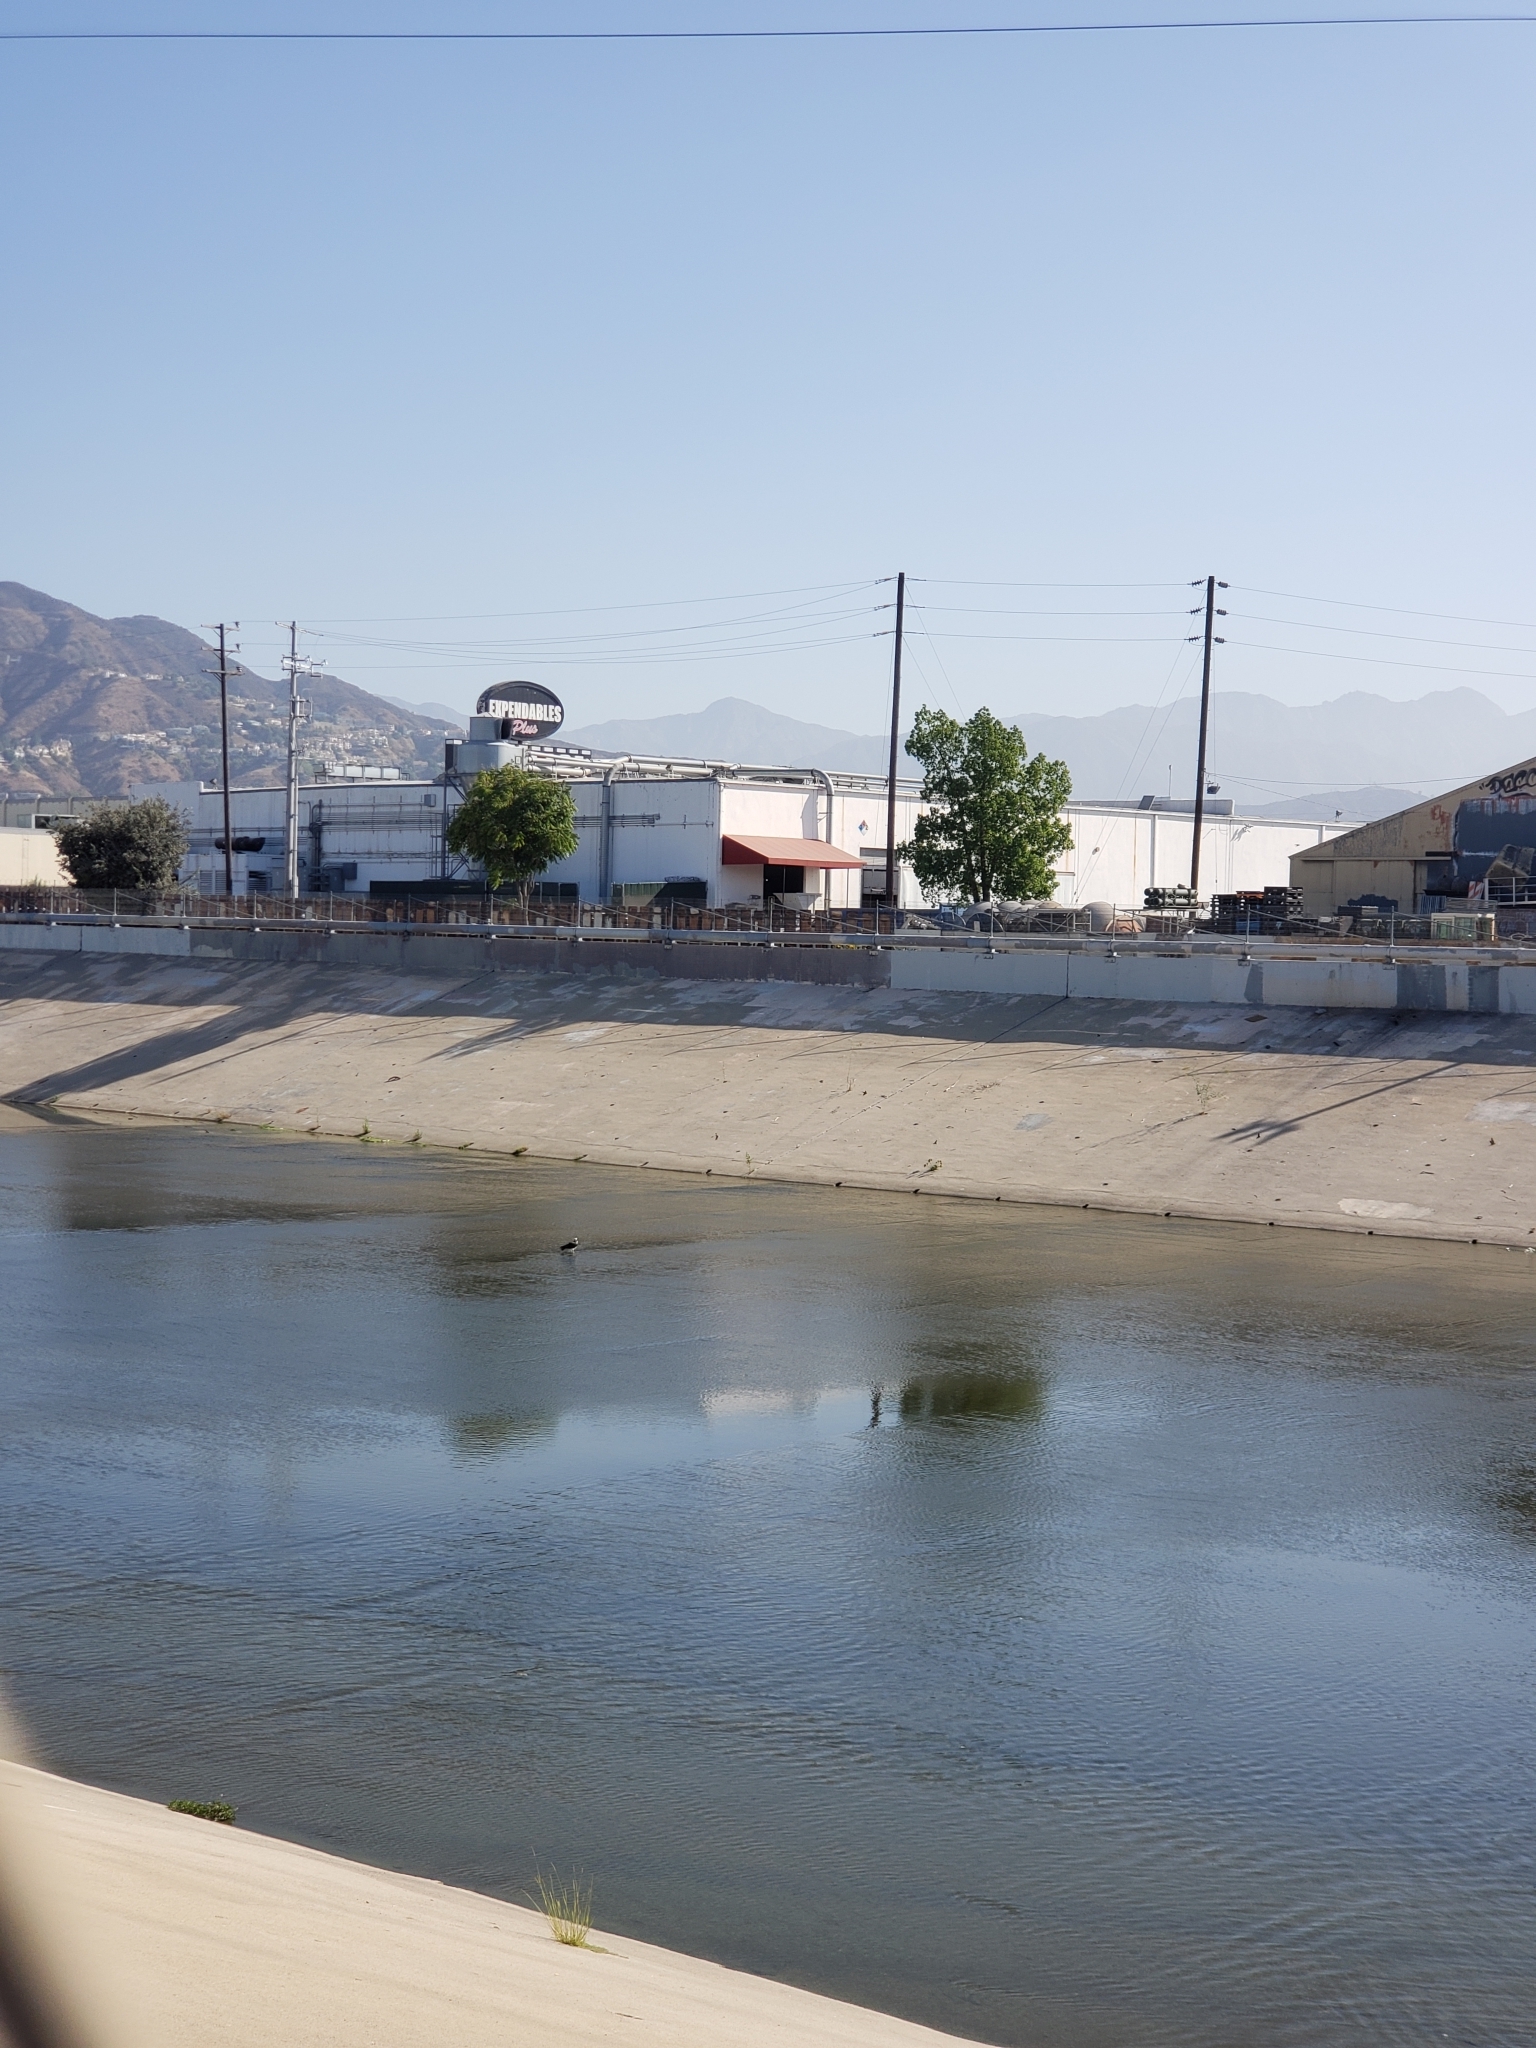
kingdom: Animalia
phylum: Chordata
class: Aves
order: Accipitriformes
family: Pandionidae
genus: Pandion
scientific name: Pandion haliaetus
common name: Osprey
